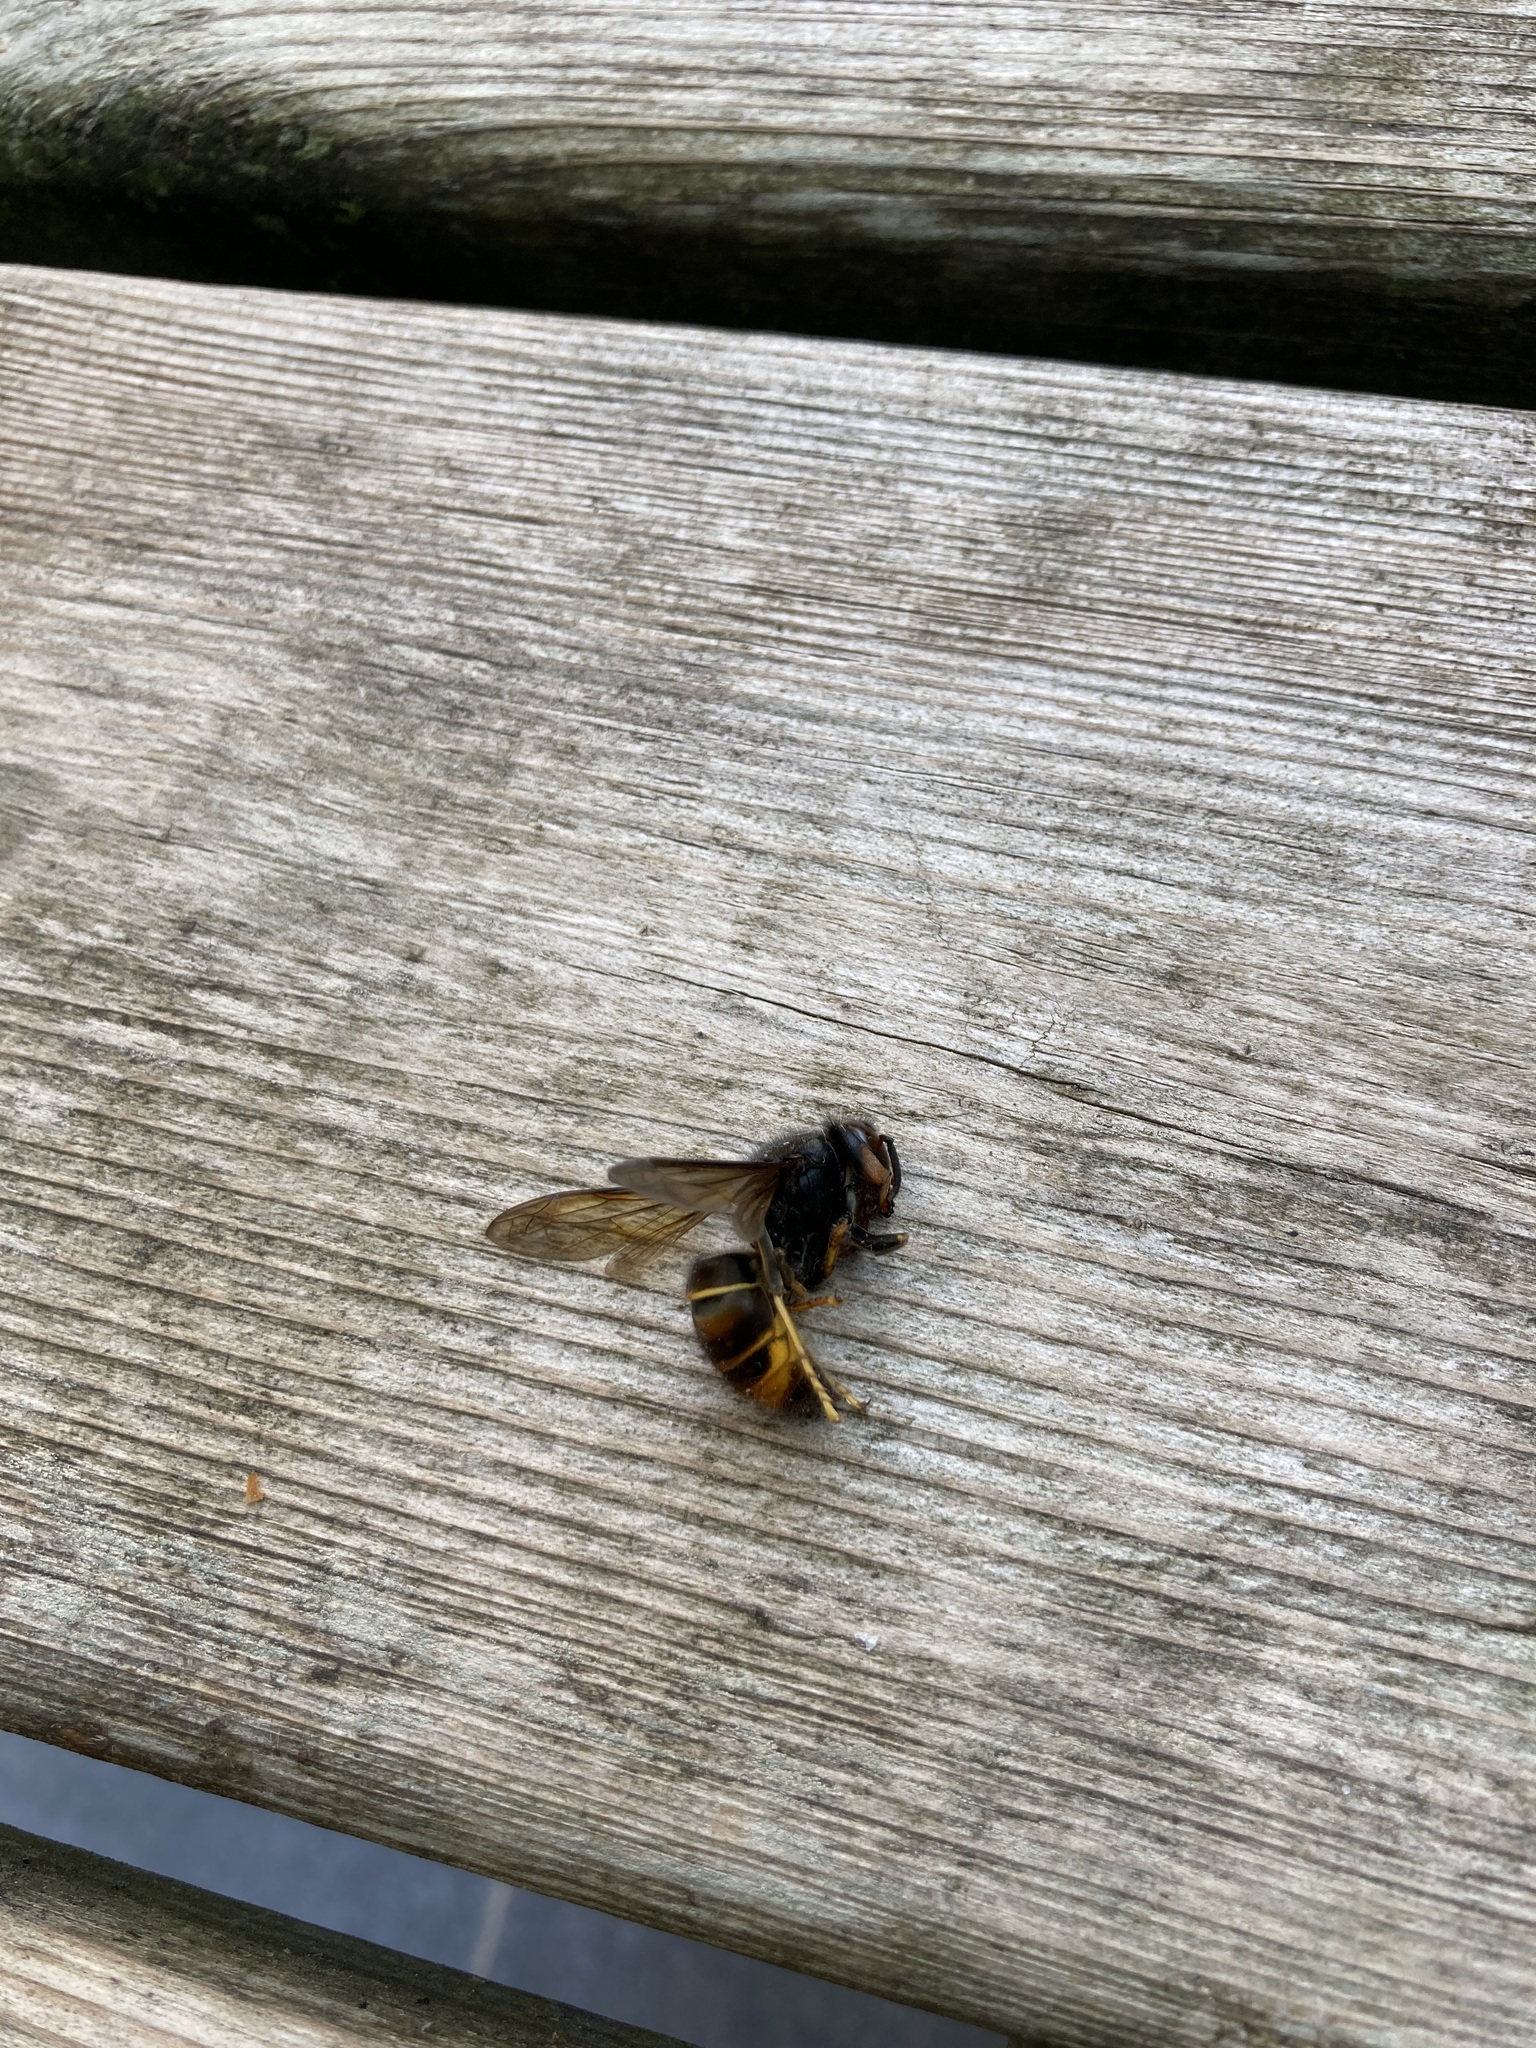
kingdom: Animalia
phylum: Arthropoda
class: Insecta
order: Hymenoptera
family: Vespidae
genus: Vespa
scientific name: Vespa velutina
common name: Asian hornet
